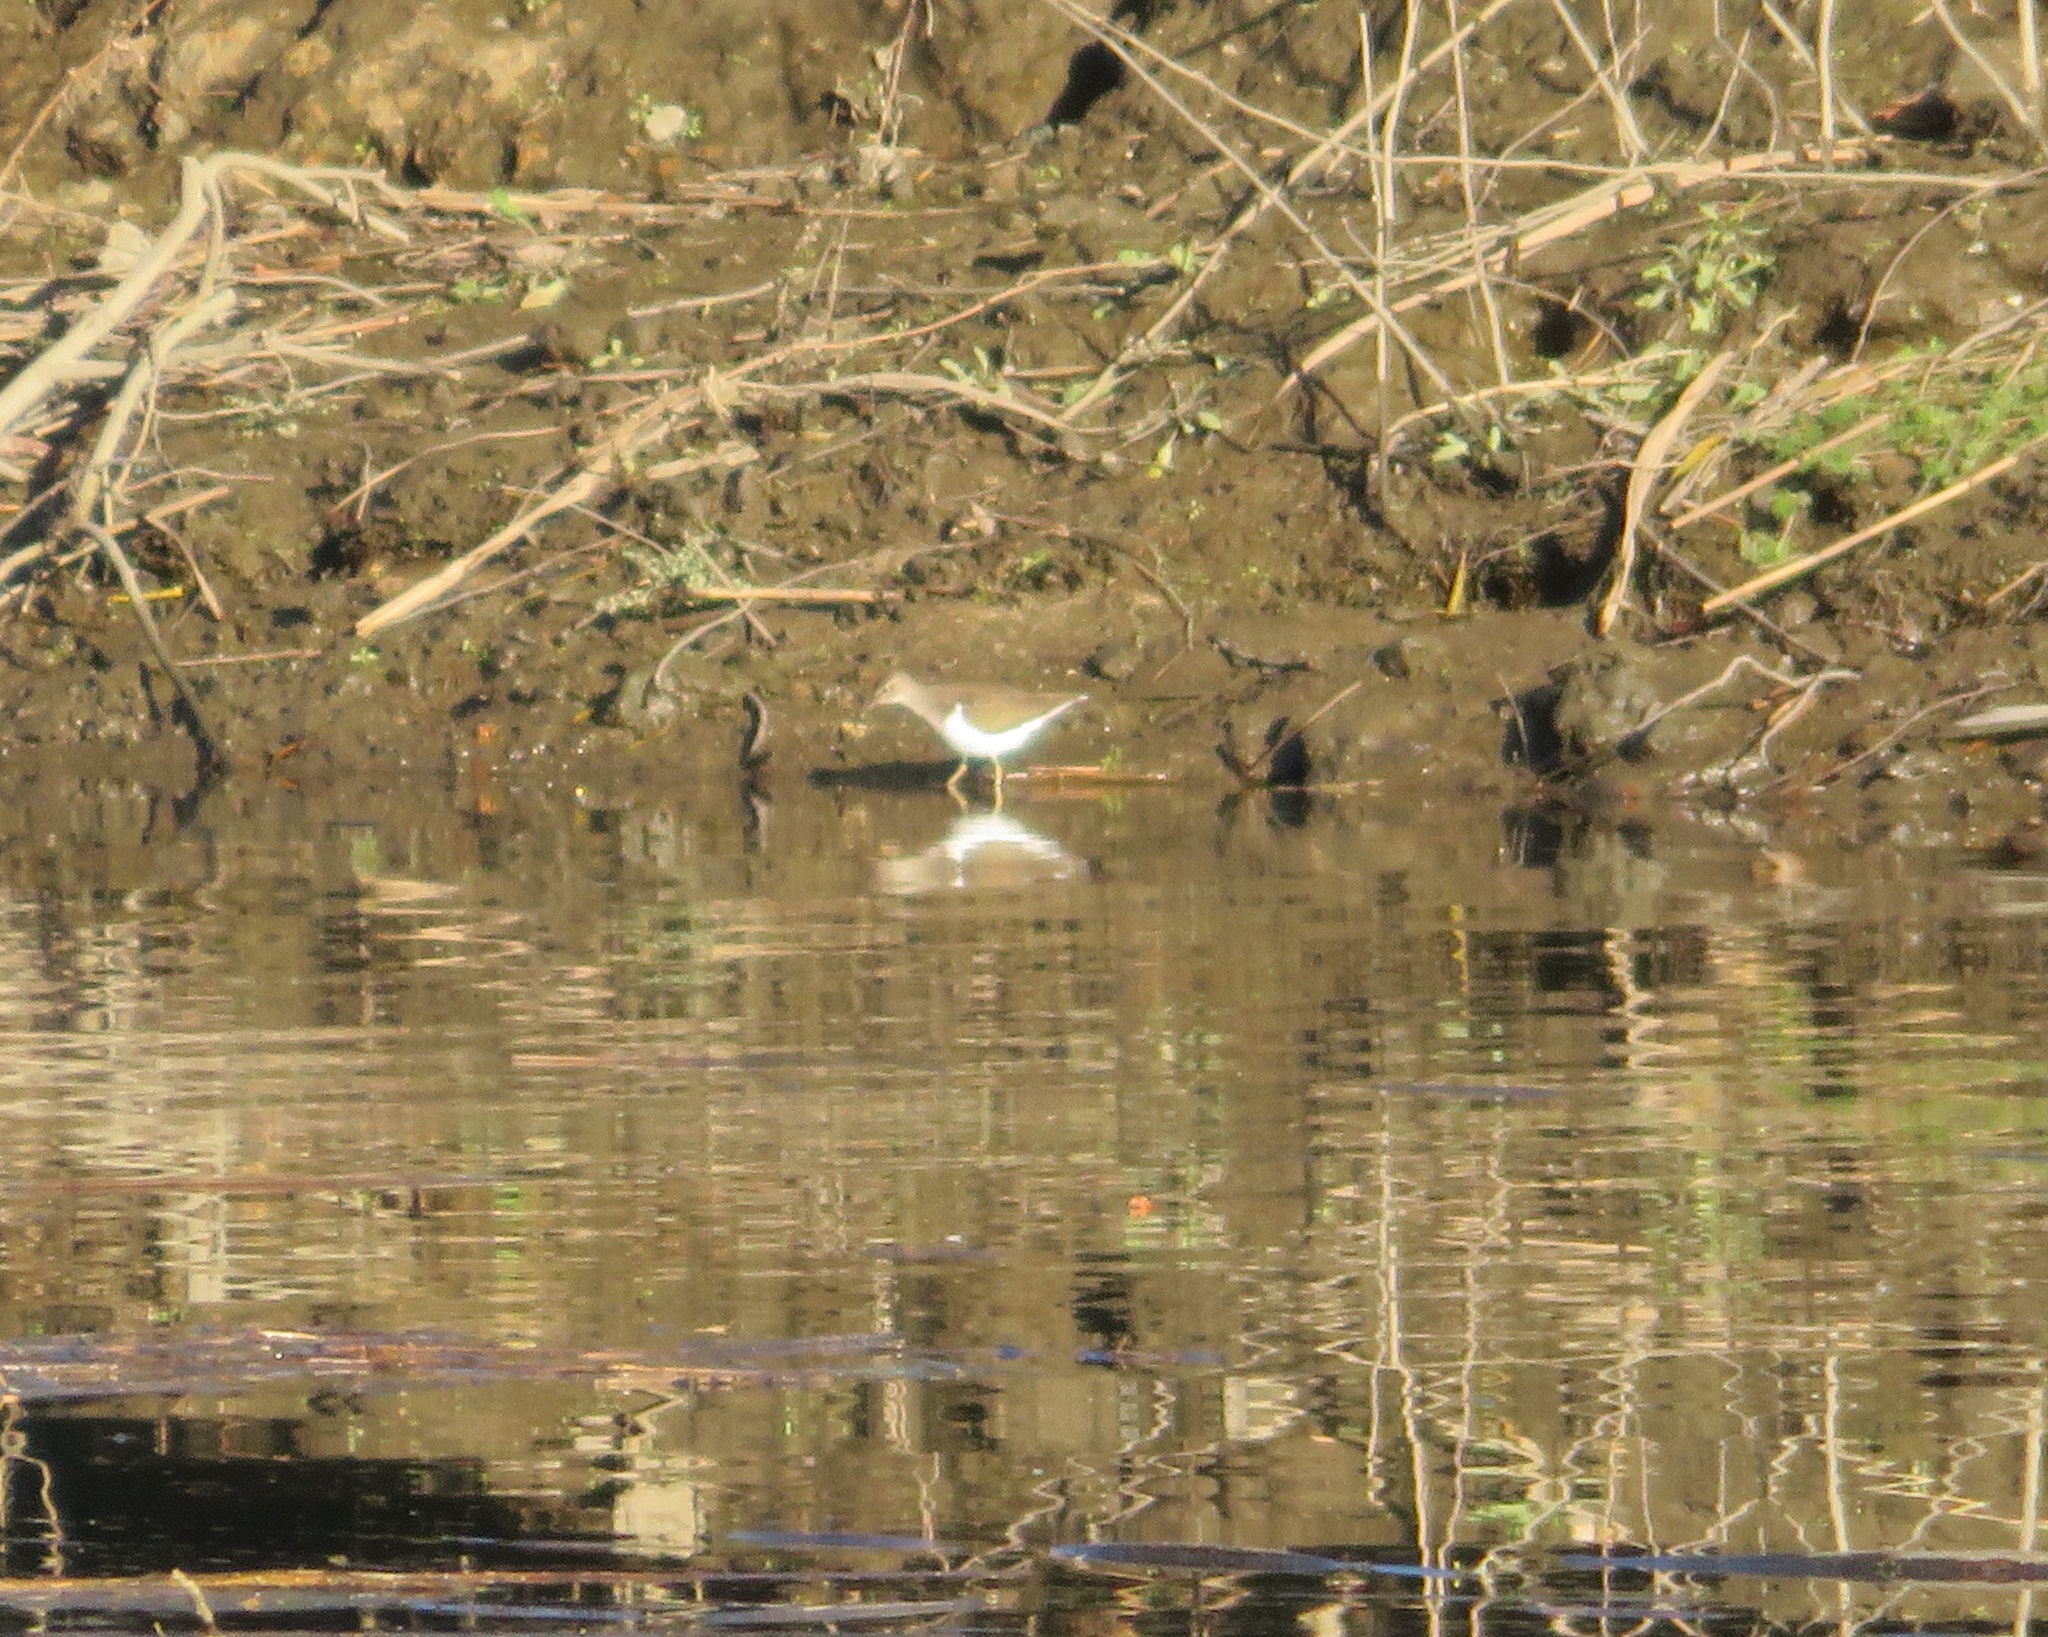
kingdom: Animalia
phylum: Chordata
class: Aves
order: Charadriiformes
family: Scolopacidae
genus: Actitis
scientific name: Actitis hypoleucos
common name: Common sandpiper
